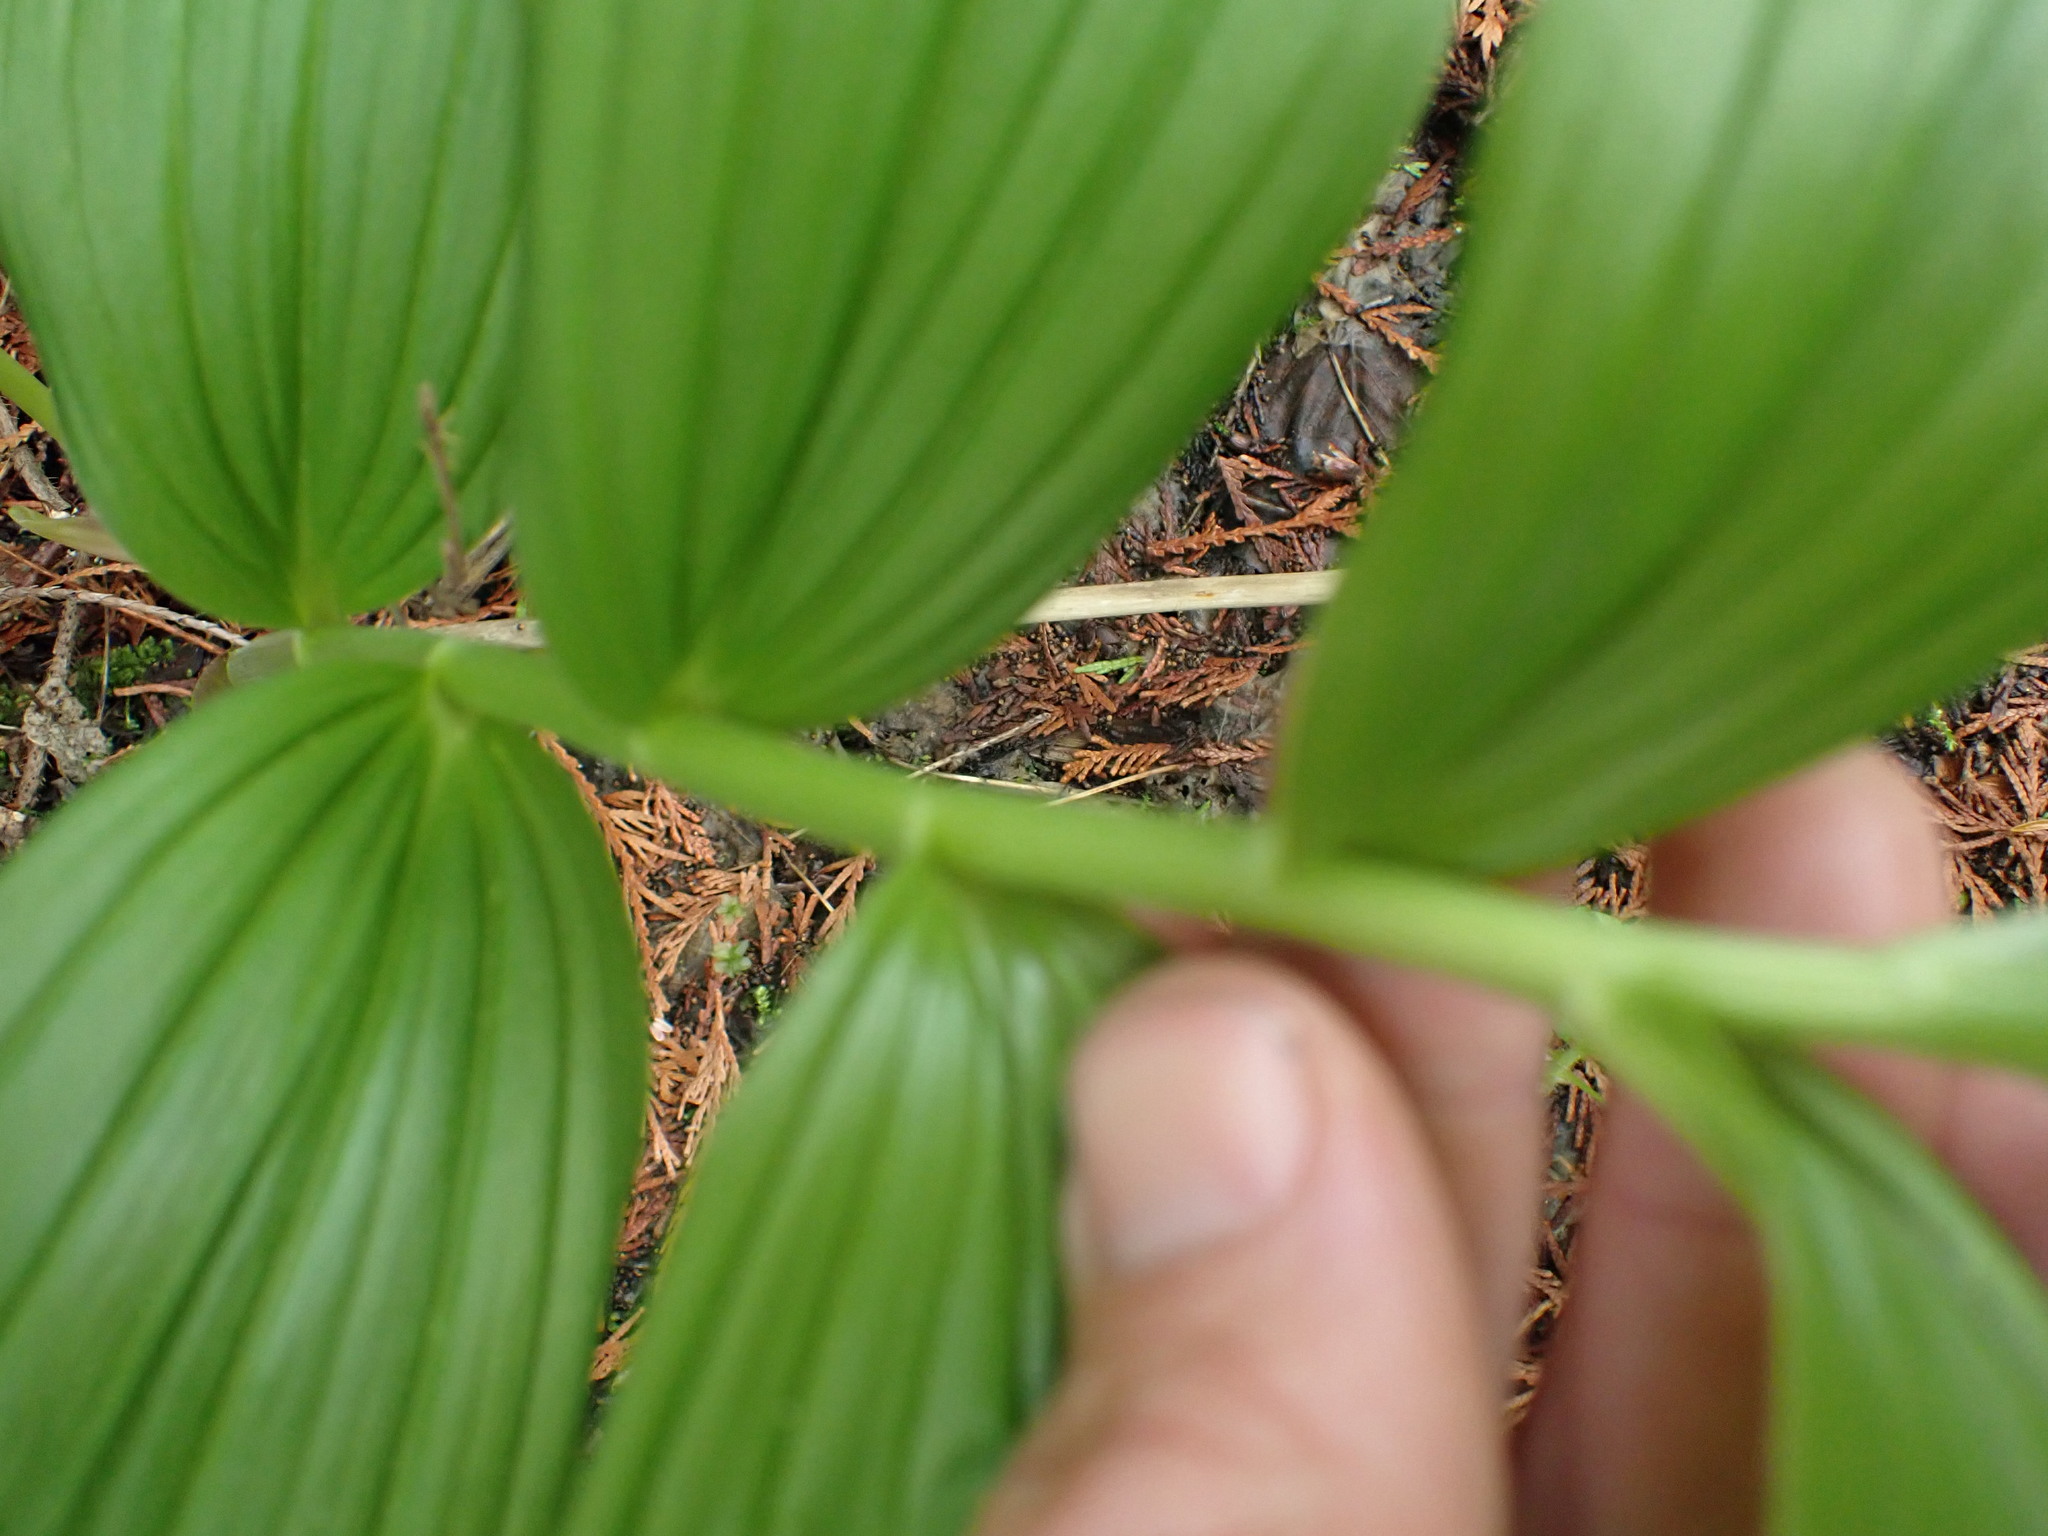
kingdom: Plantae
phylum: Tracheophyta
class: Liliopsida
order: Asparagales
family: Asparagaceae
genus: Maianthemum
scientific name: Maianthemum racemosum
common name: False spikenard
